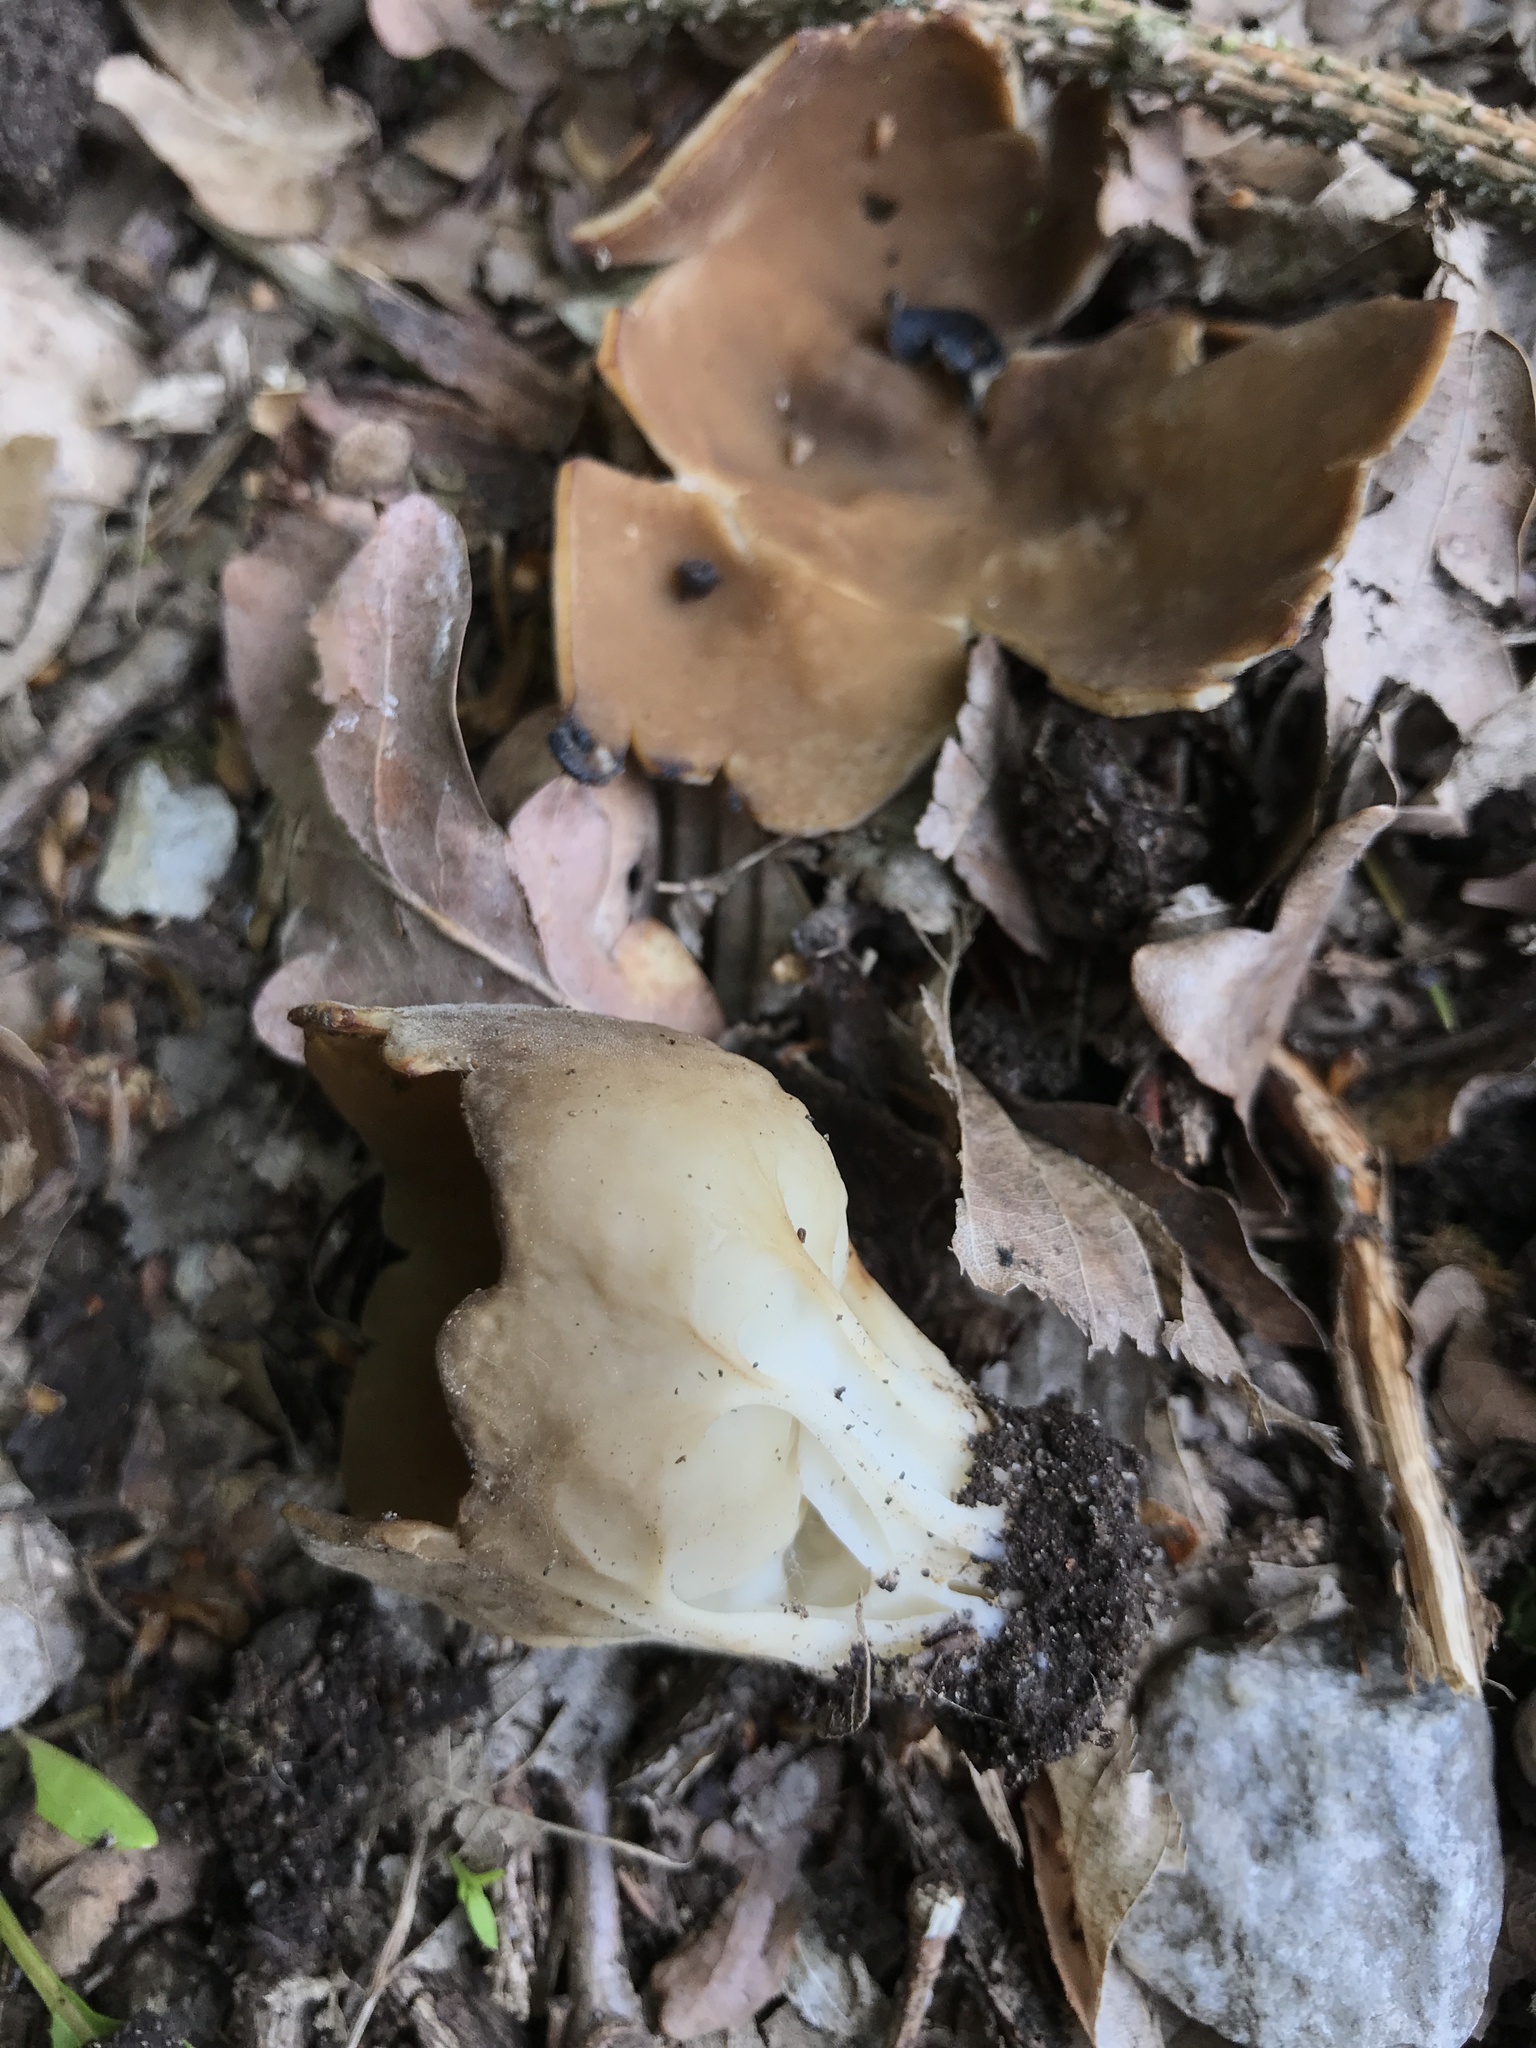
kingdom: Fungi
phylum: Ascomycota
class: Pezizomycetes
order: Pezizales
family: Helvellaceae
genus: Helvella
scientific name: Helvella acetabulum
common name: Vinegar cup
